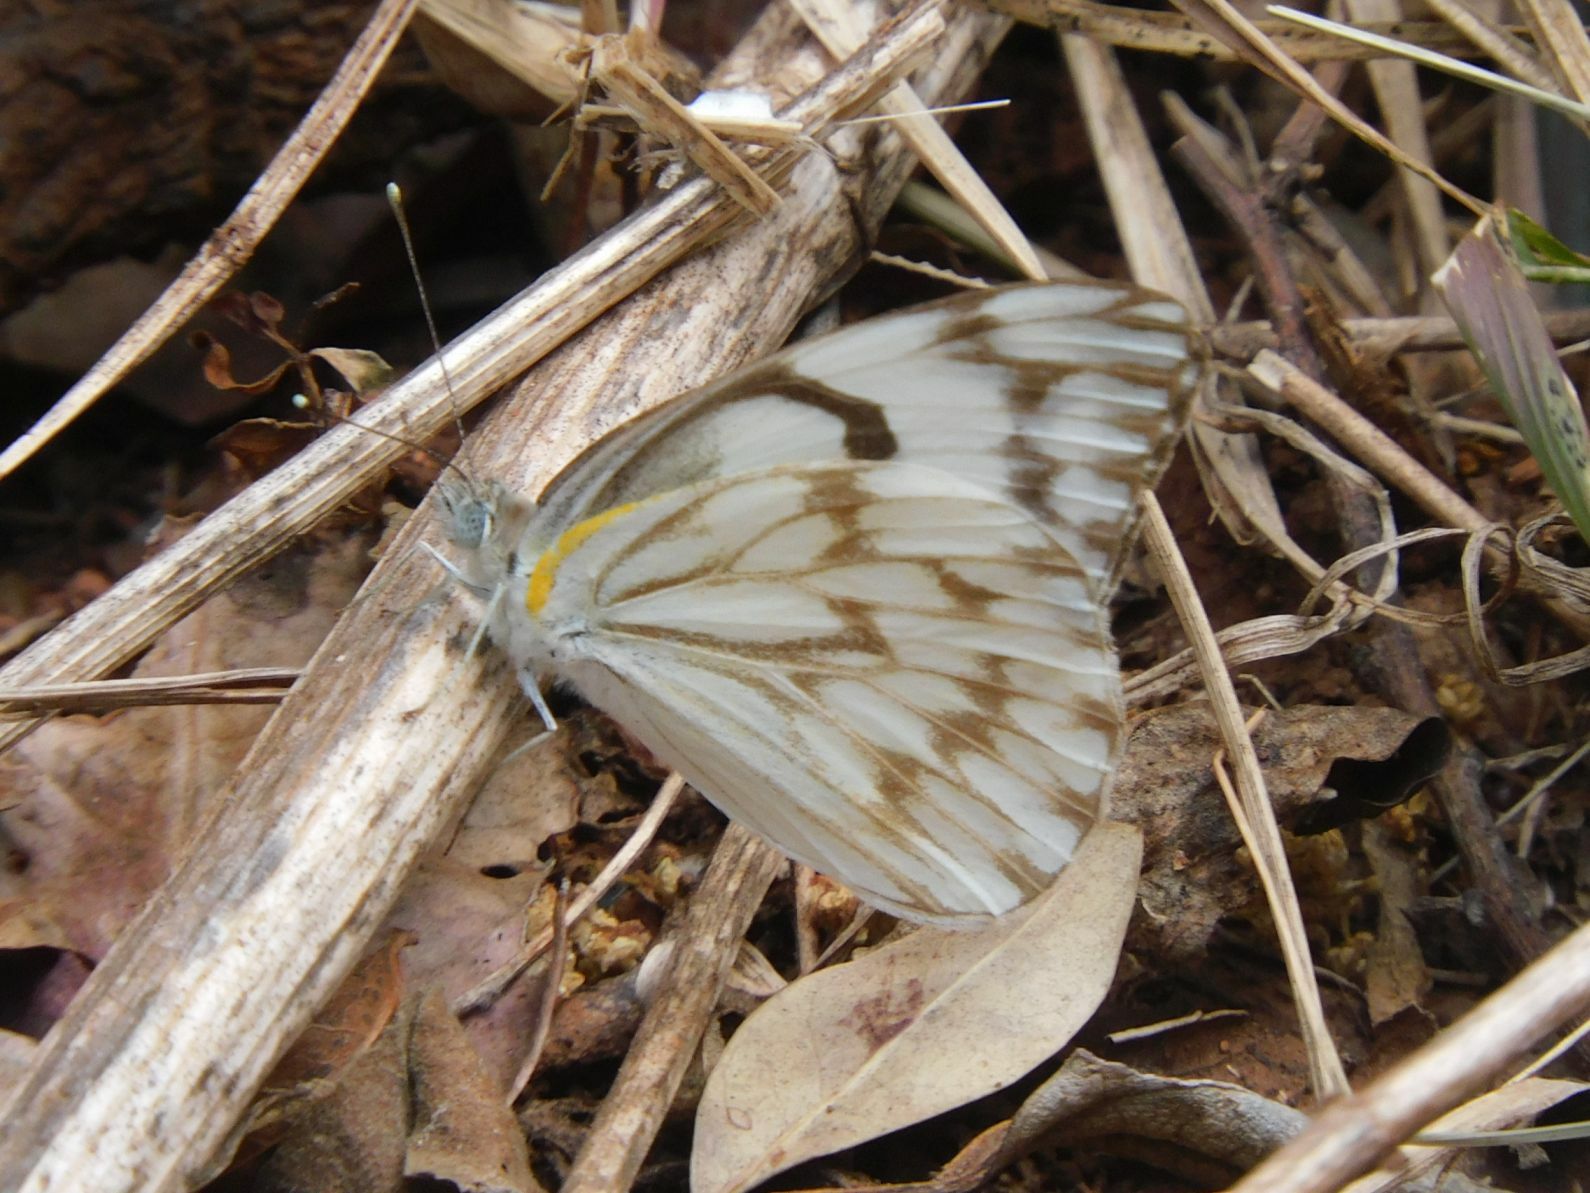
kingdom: Animalia
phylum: Arthropoda
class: Insecta
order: Lepidoptera
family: Pieridae
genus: Belenois
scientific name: Belenois gidica
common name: Pointed caper white
